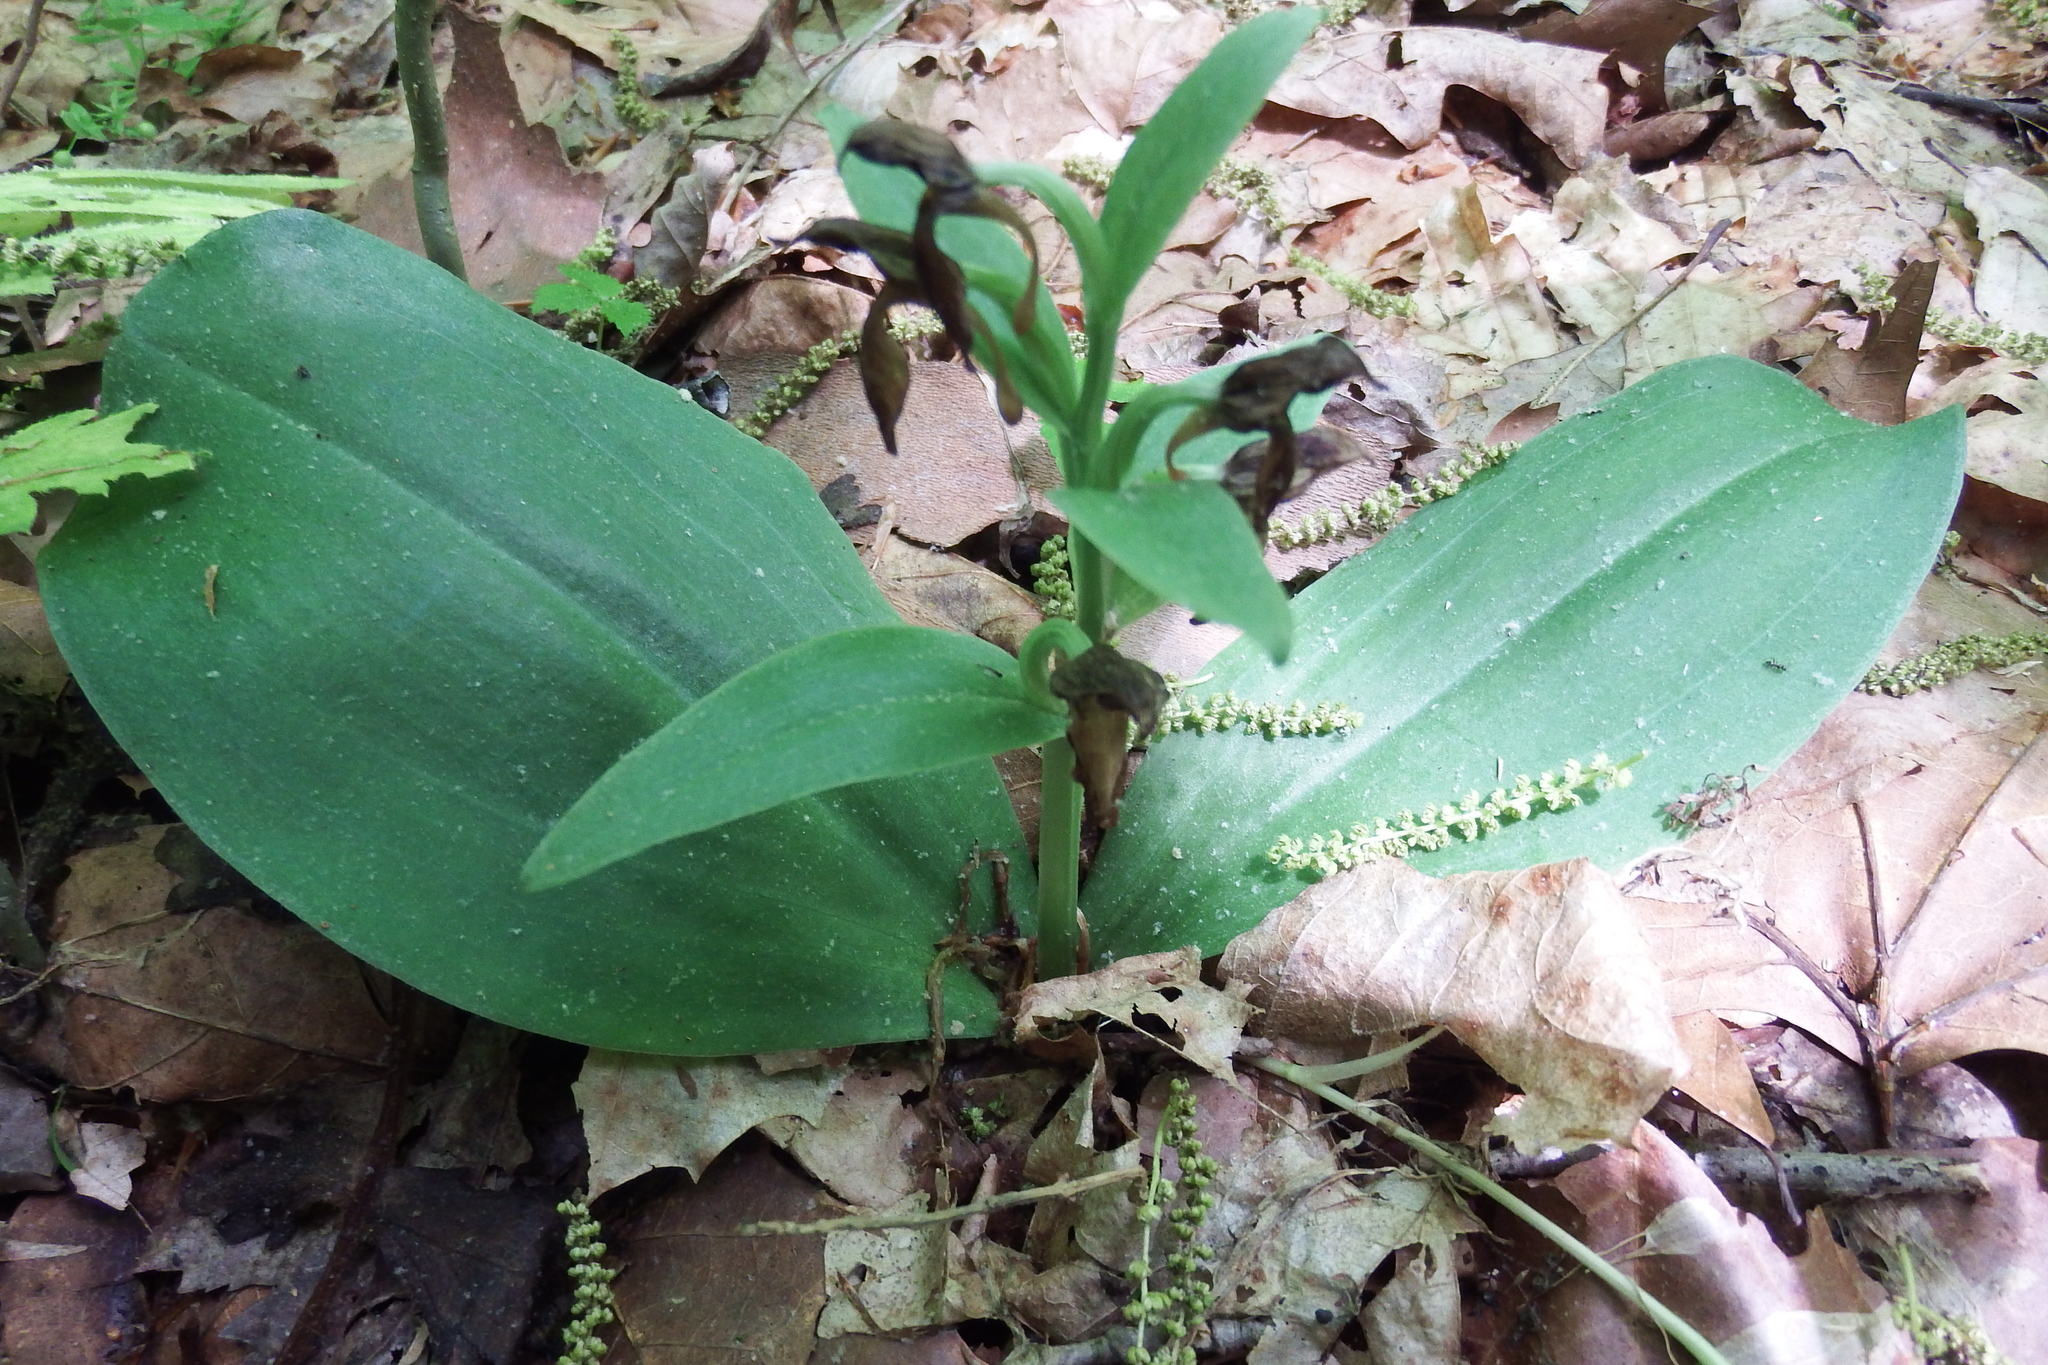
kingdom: Plantae
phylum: Tracheophyta
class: Liliopsida
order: Asparagales
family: Orchidaceae
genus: Galearis
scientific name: Galearis spectabilis
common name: Purple-hooded orchis
